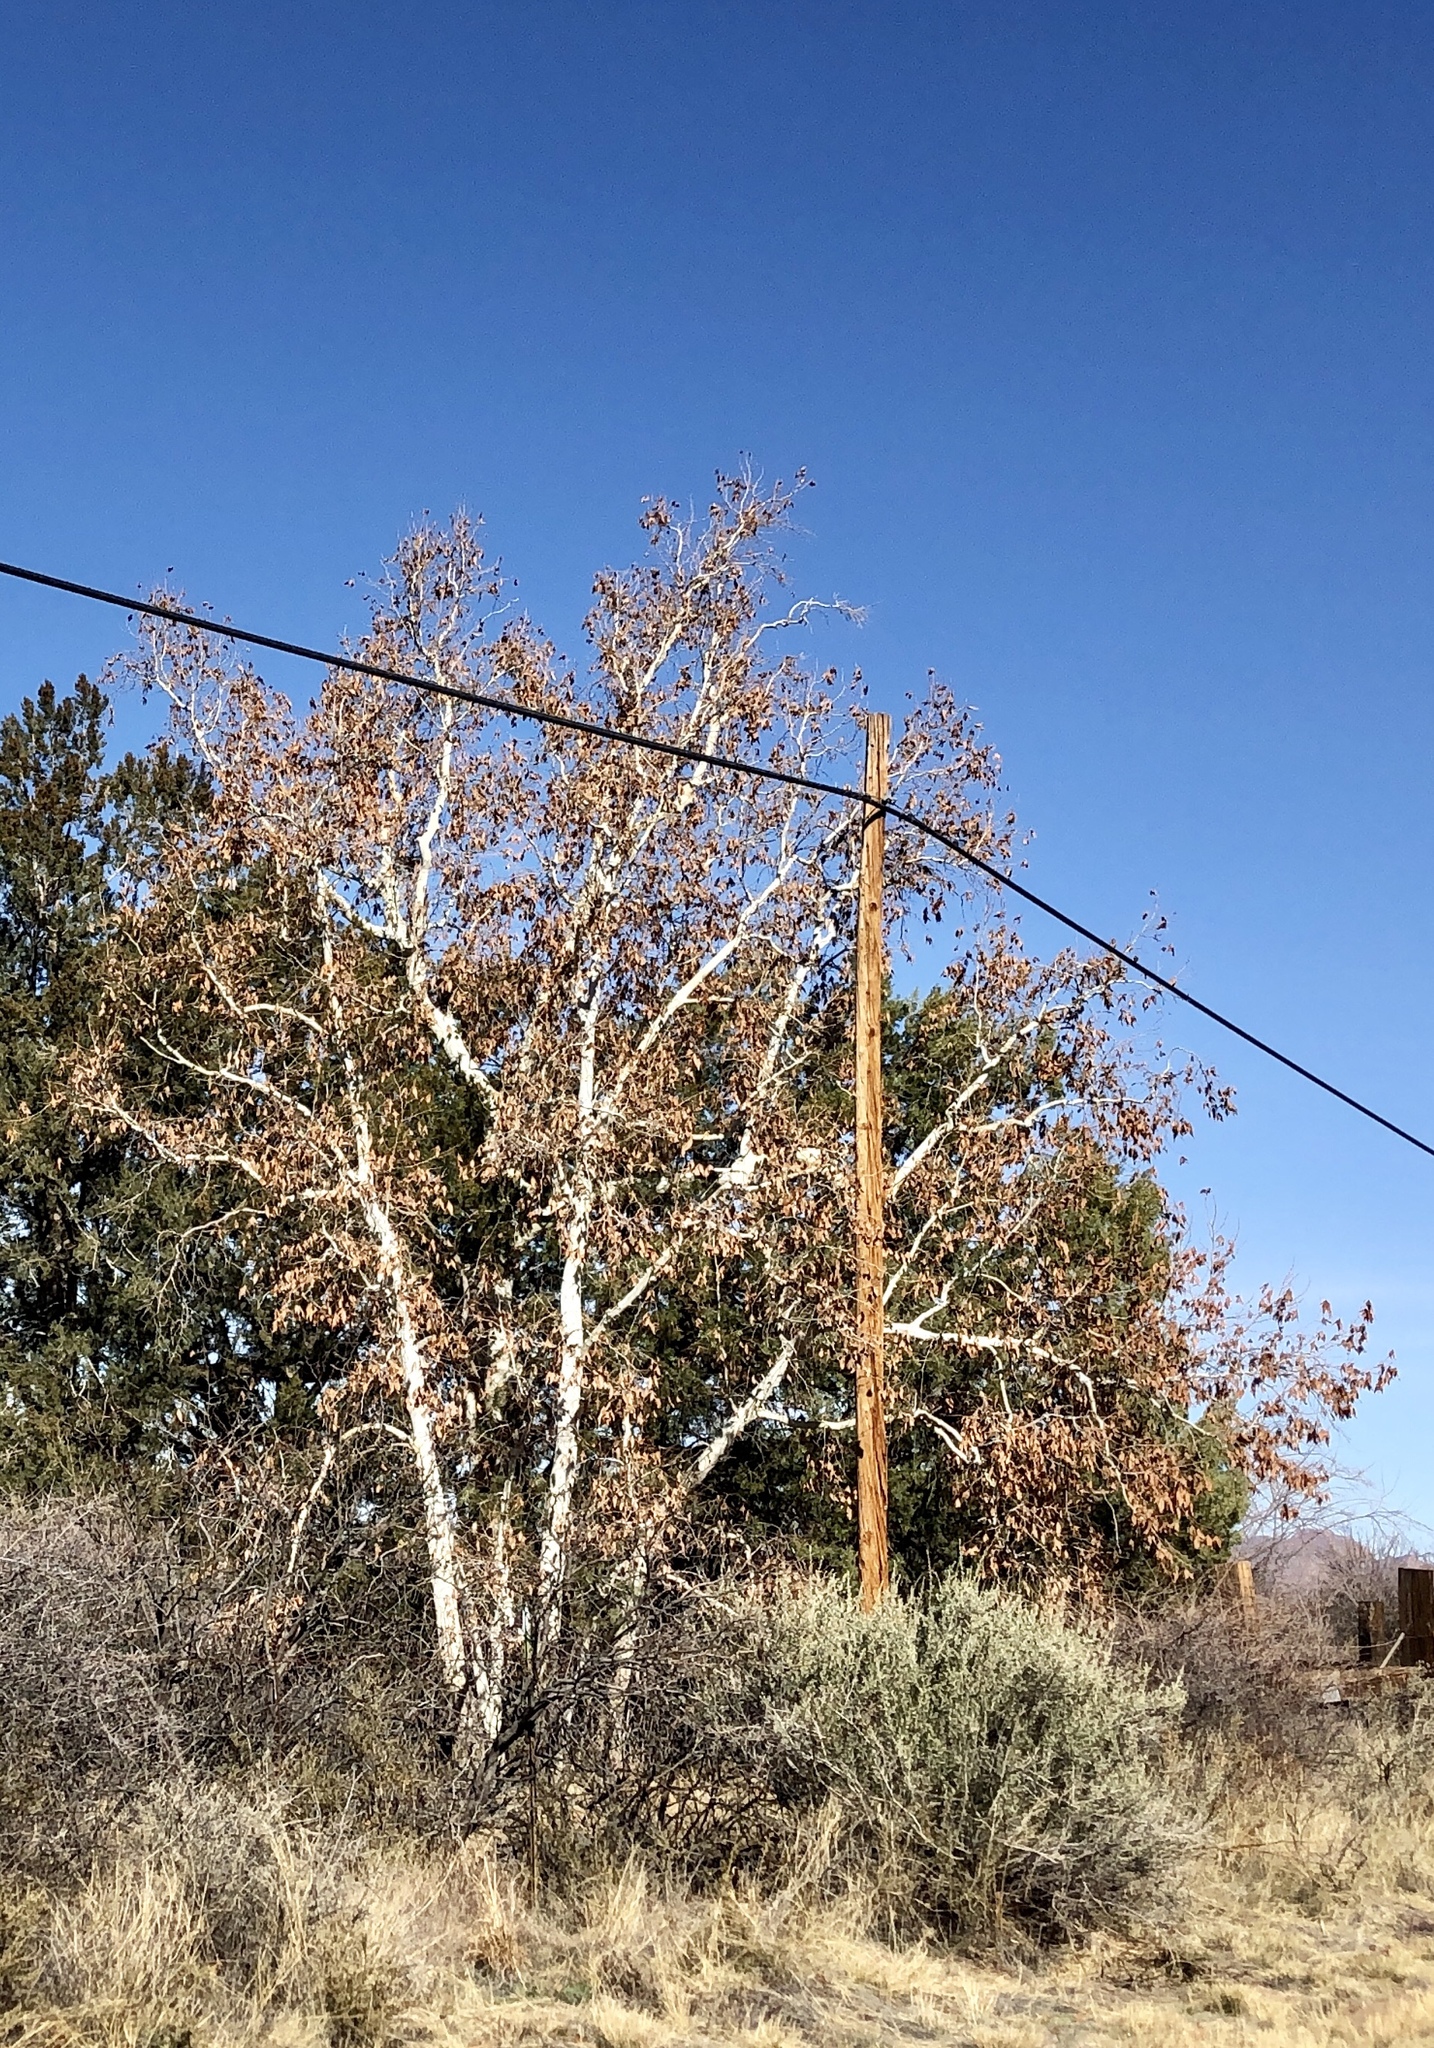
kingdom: Plantae
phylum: Tracheophyta
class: Magnoliopsida
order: Proteales
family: Platanaceae
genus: Platanus
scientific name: Platanus wrightii
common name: Arizona sycamore
